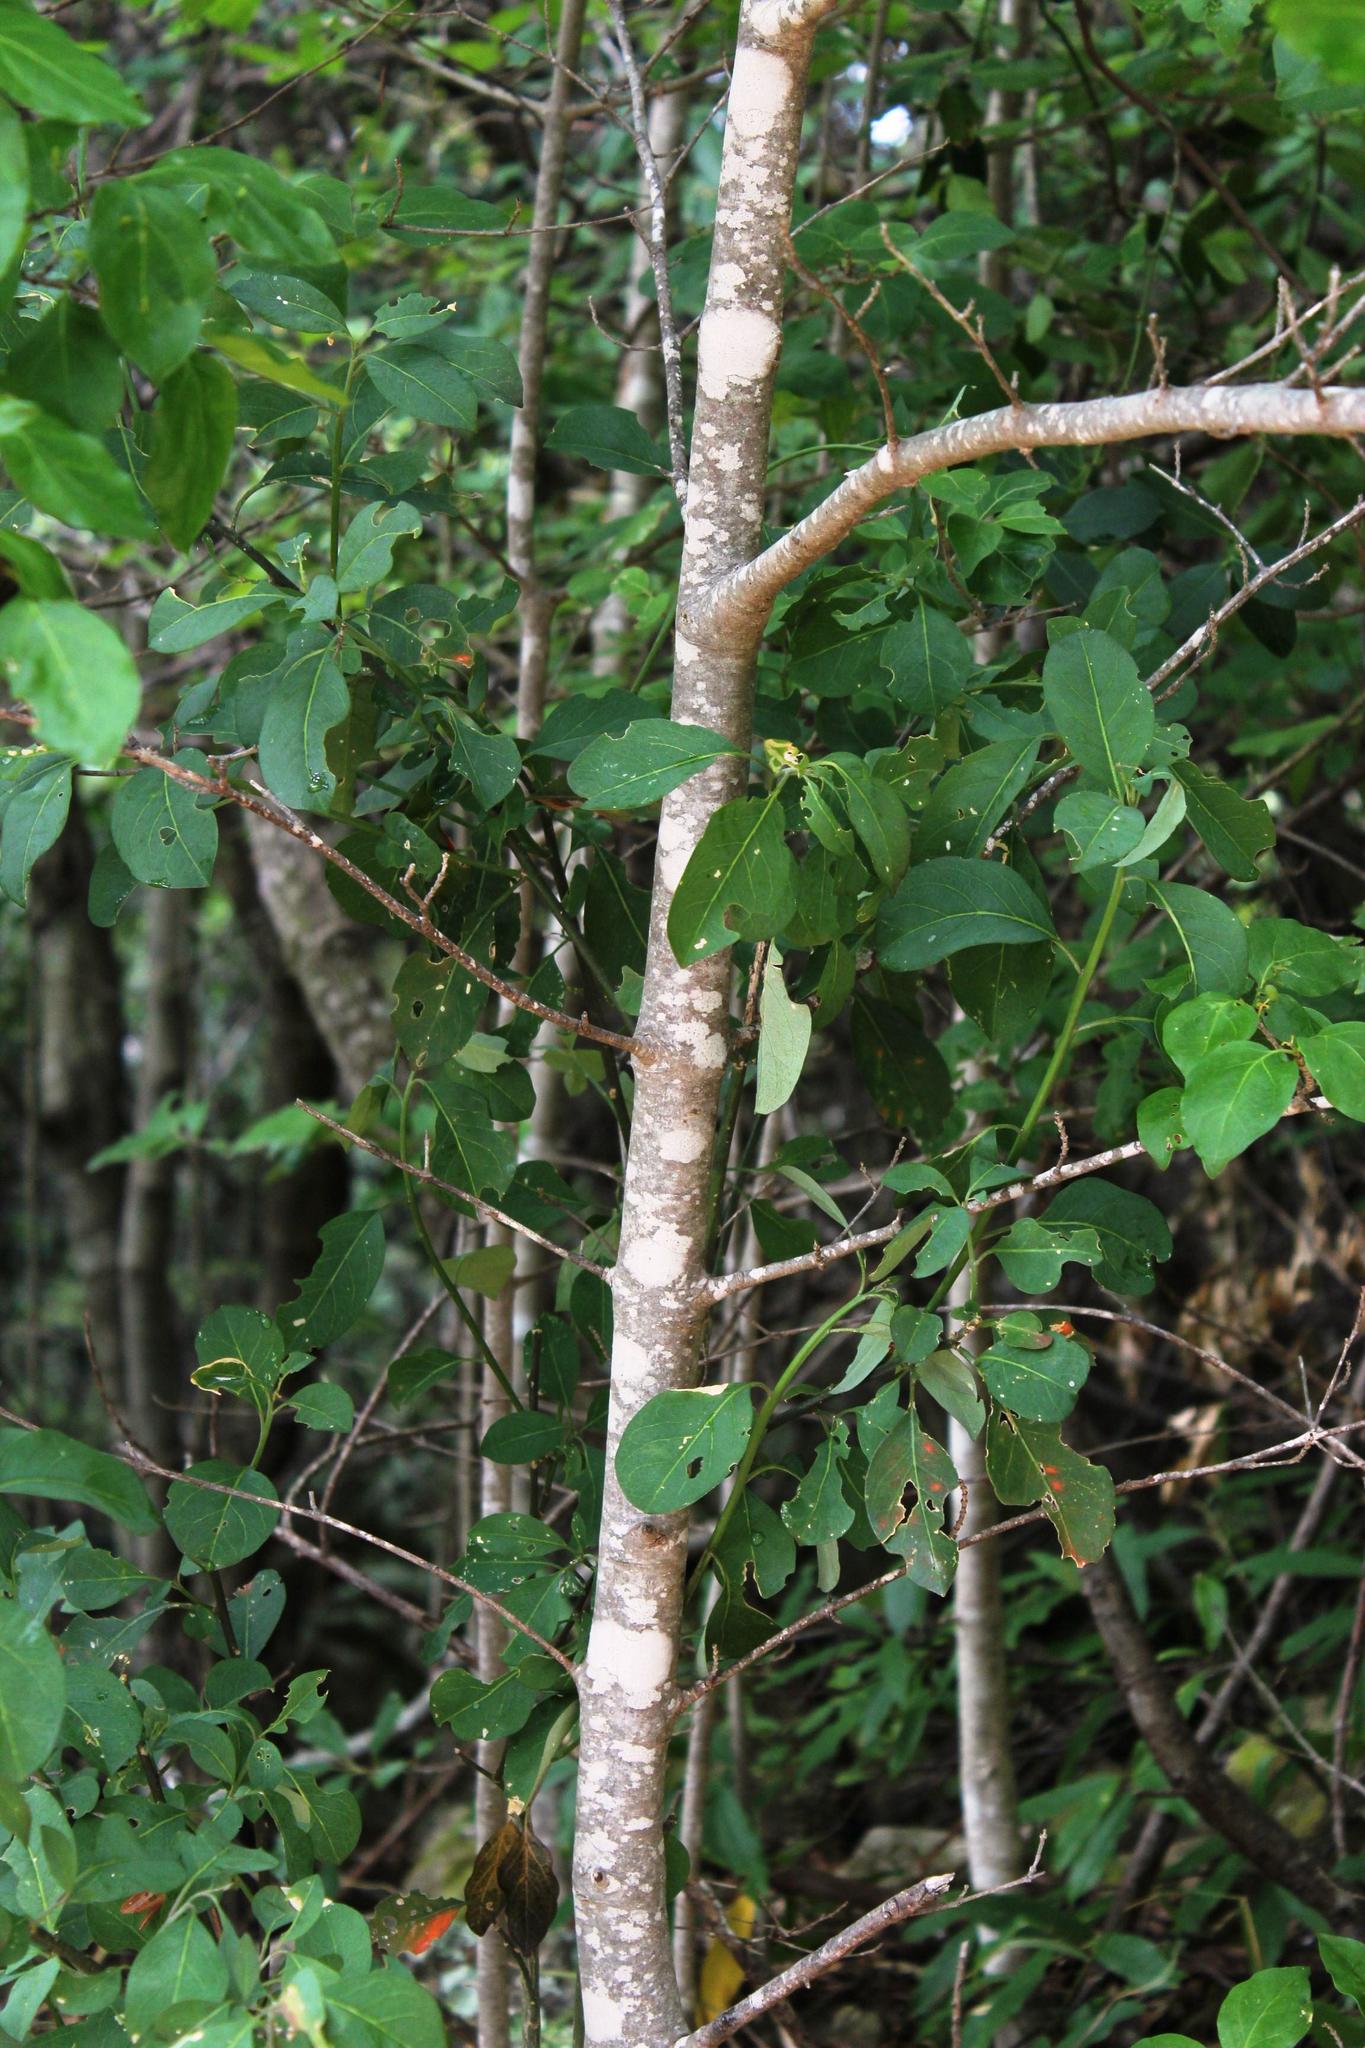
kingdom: Plantae
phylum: Tracheophyta
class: Magnoliopsida
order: Gentianales
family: Rubiaceae
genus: Afrocanthium
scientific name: Afrocanthium mundianum
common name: Rock-alder
